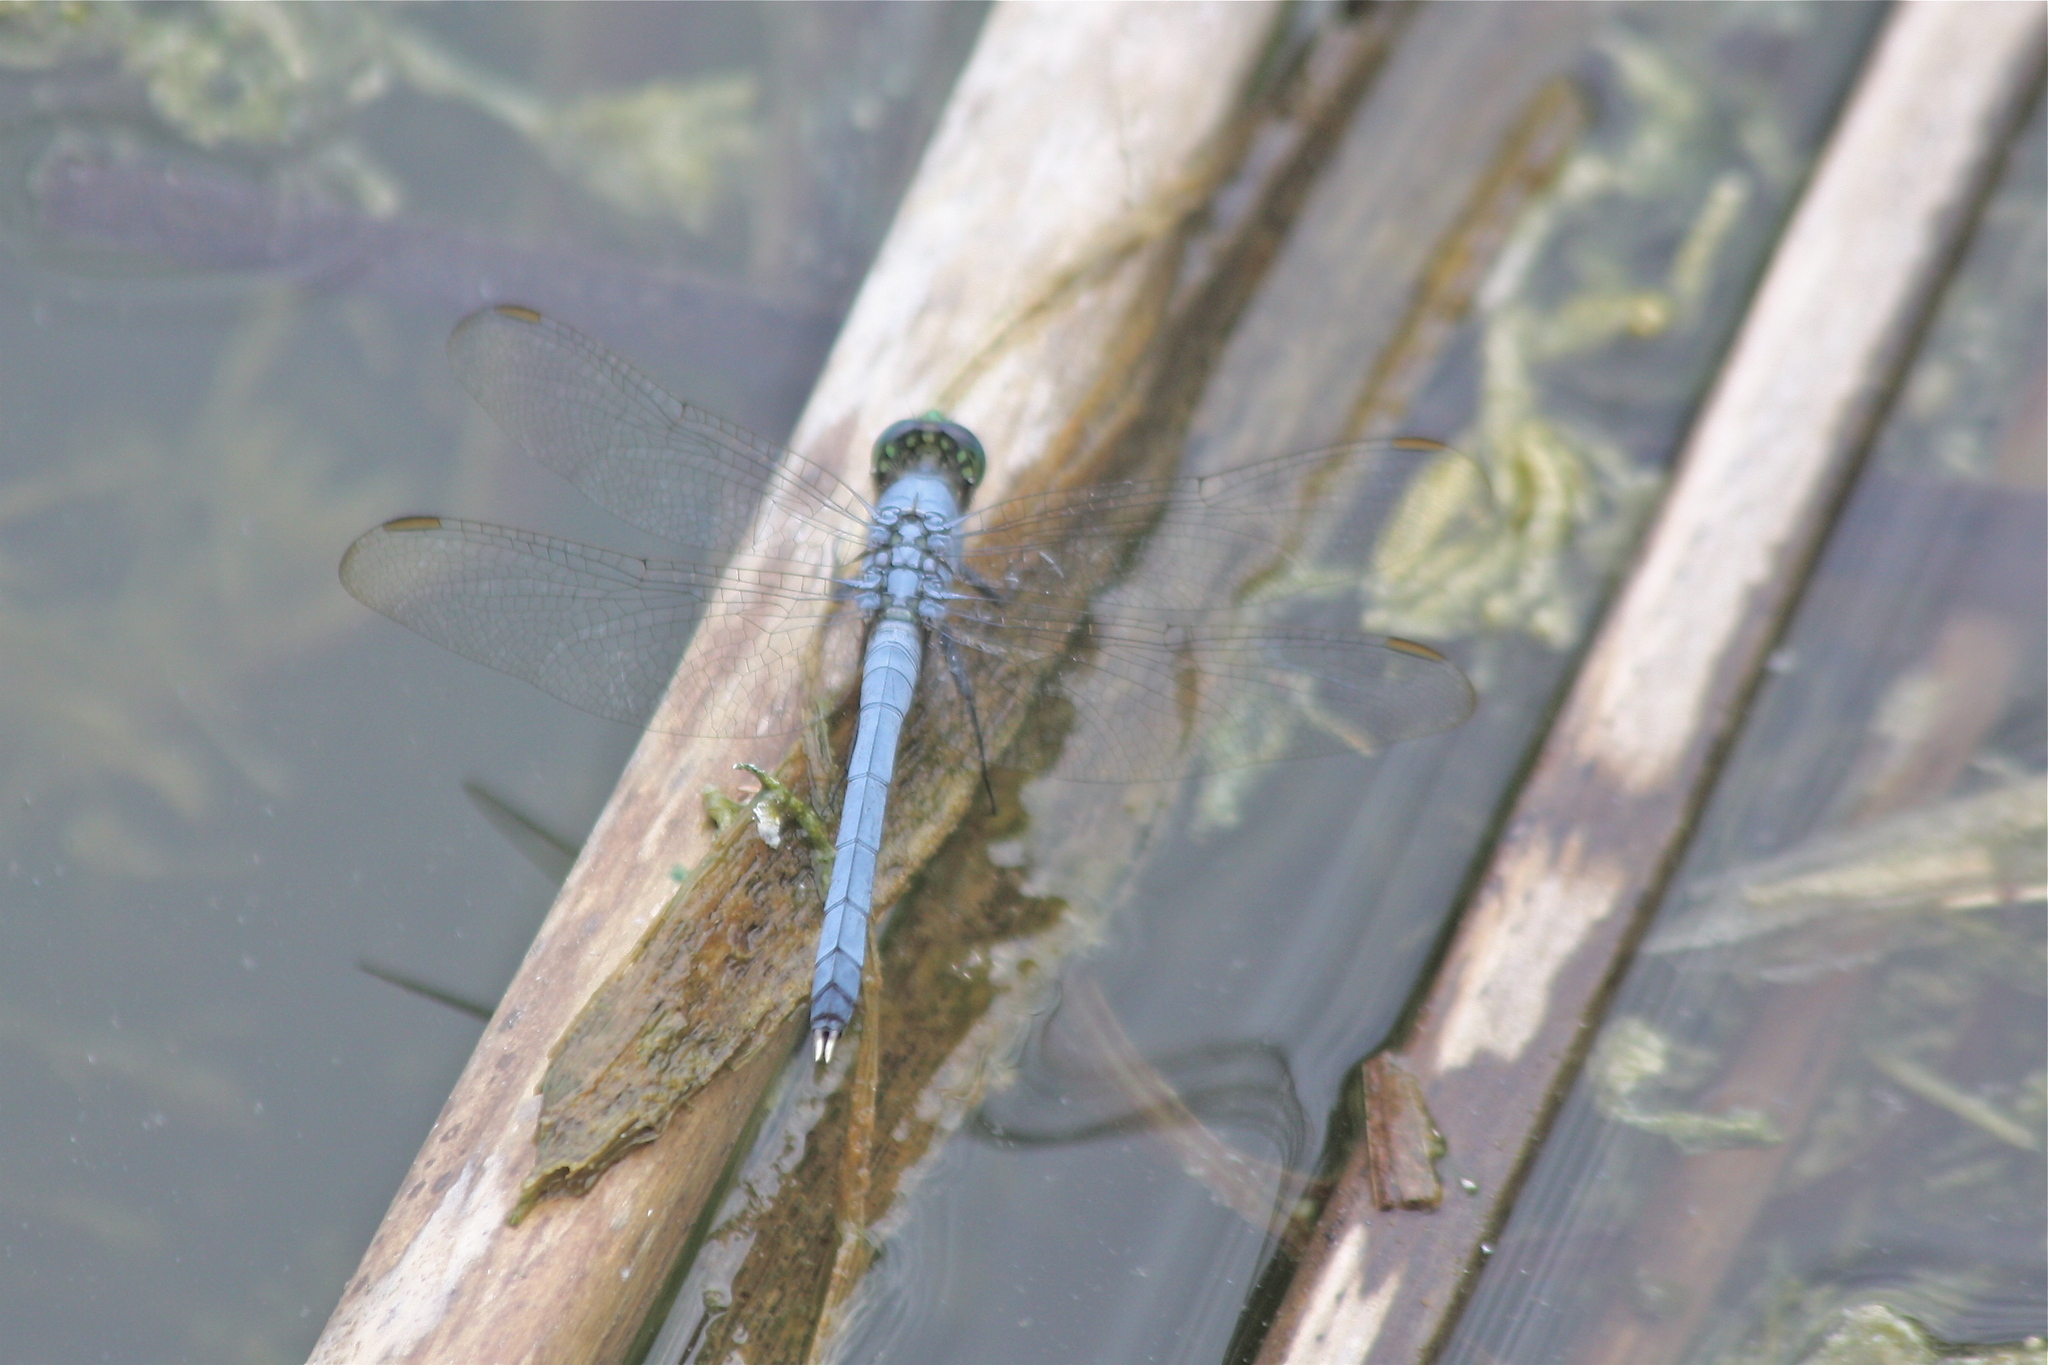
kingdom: Animalia
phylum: Arthropoda
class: Insecta
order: Odonata
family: Libellulidae
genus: Erythemis
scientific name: Erythemis simplicicollis
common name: Eastern pondhawk
